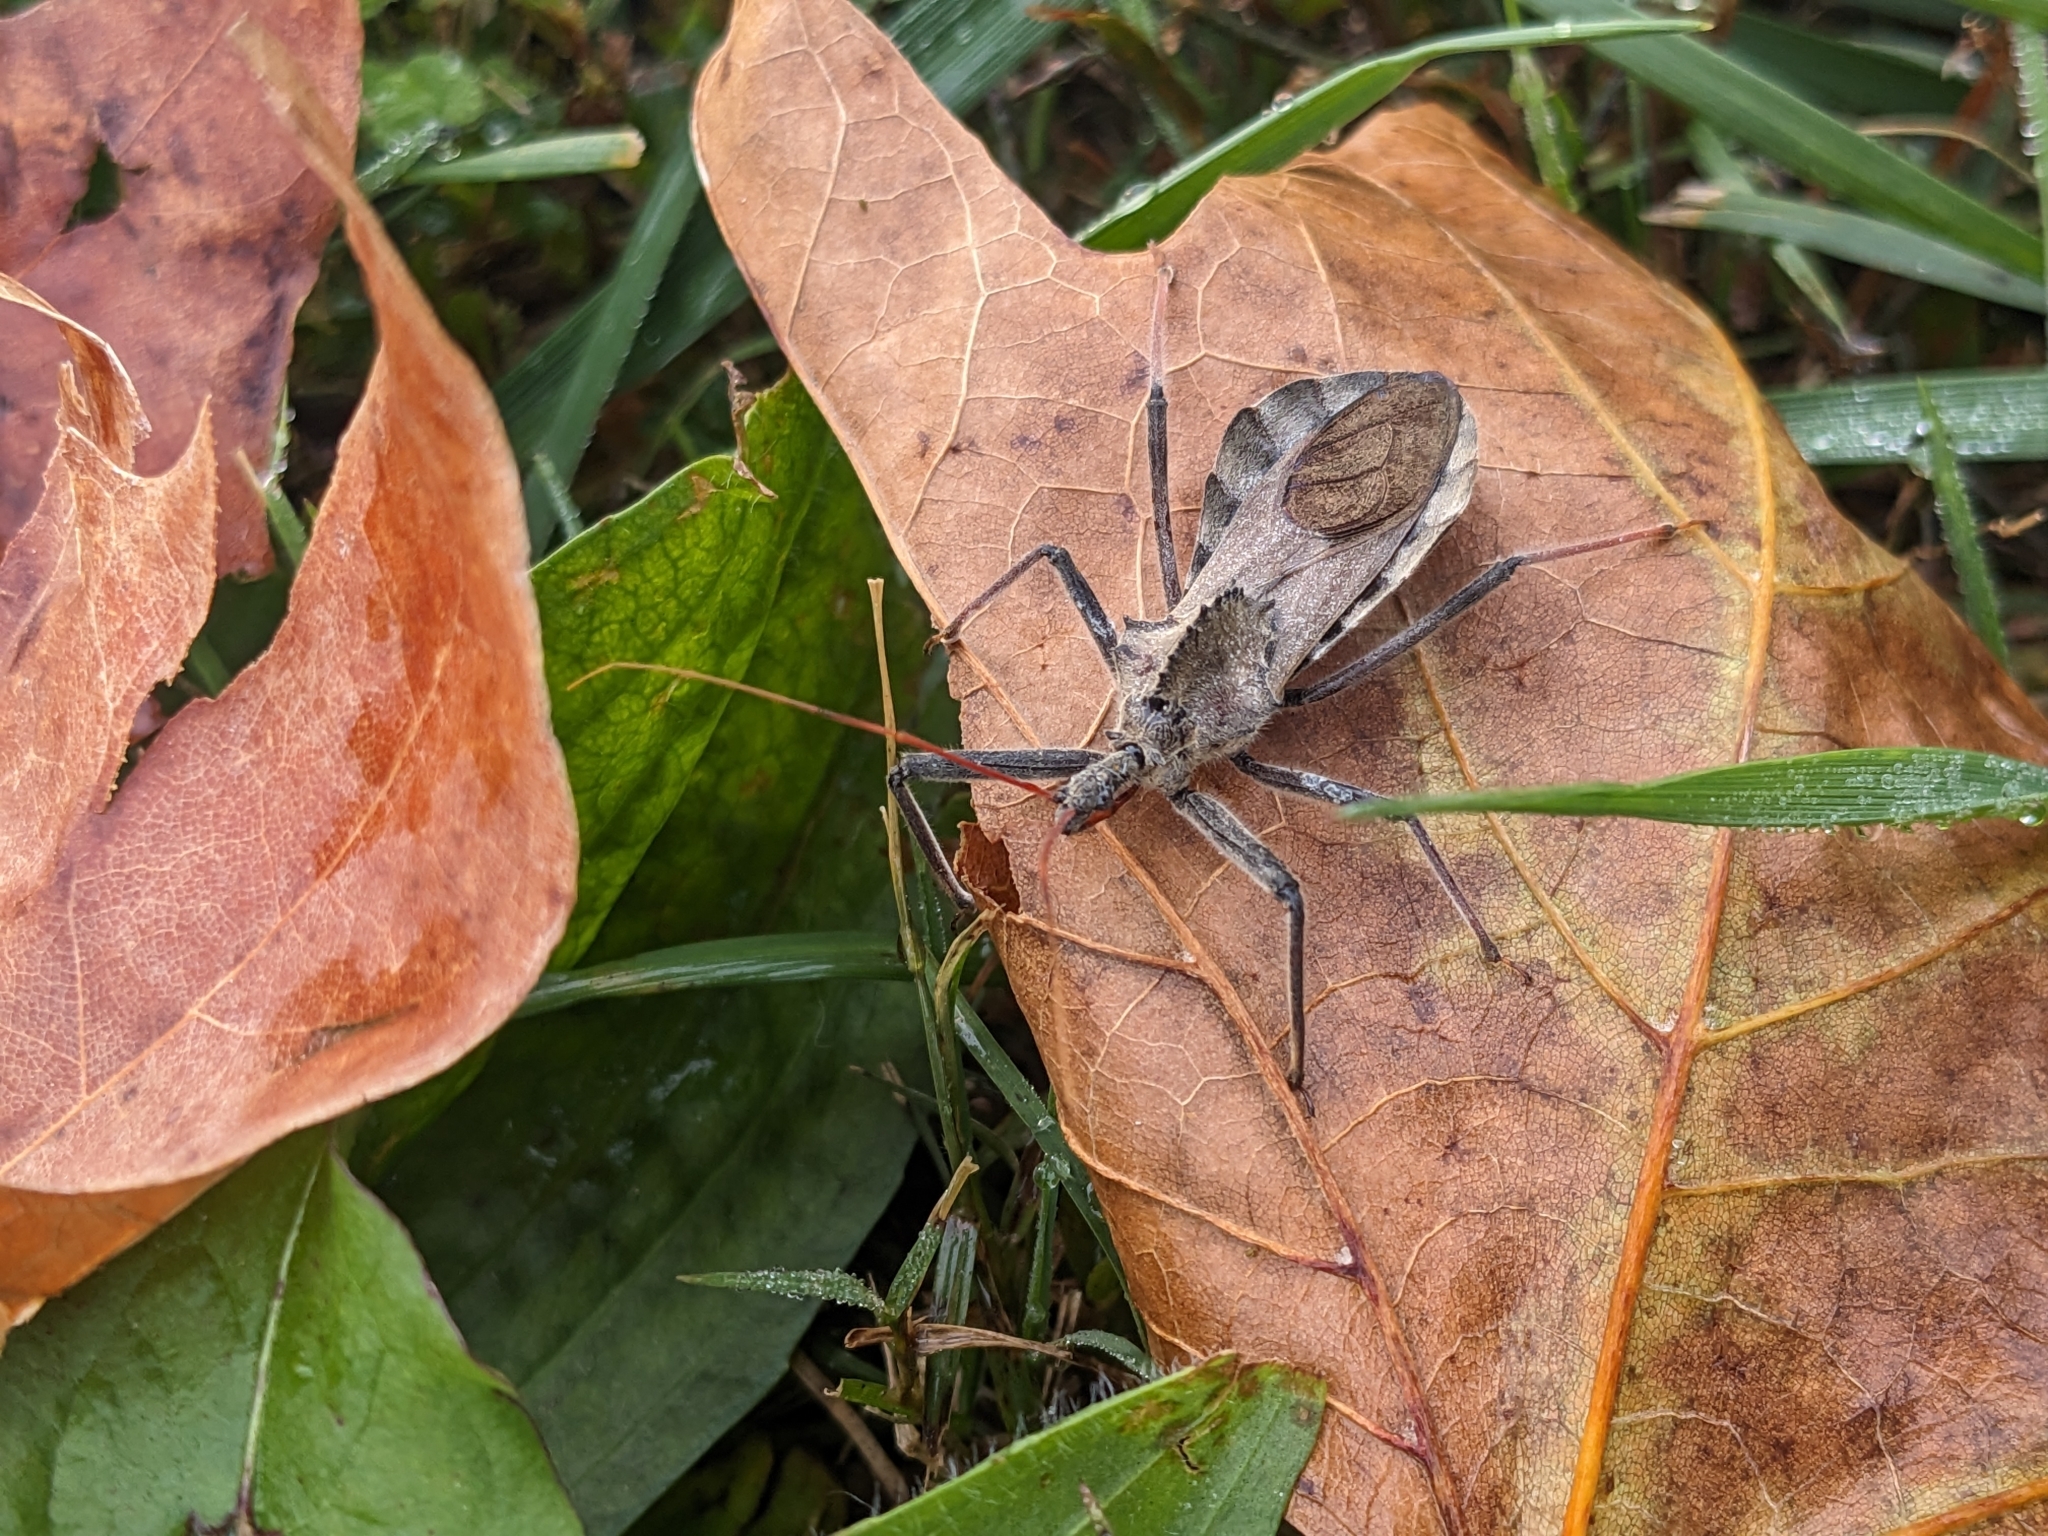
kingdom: Animalia
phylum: Arthropoda
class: Insecta
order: Hemiptera
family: Reduviidae
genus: Arilus
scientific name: Arilus cristatus
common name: North american wheel bug
